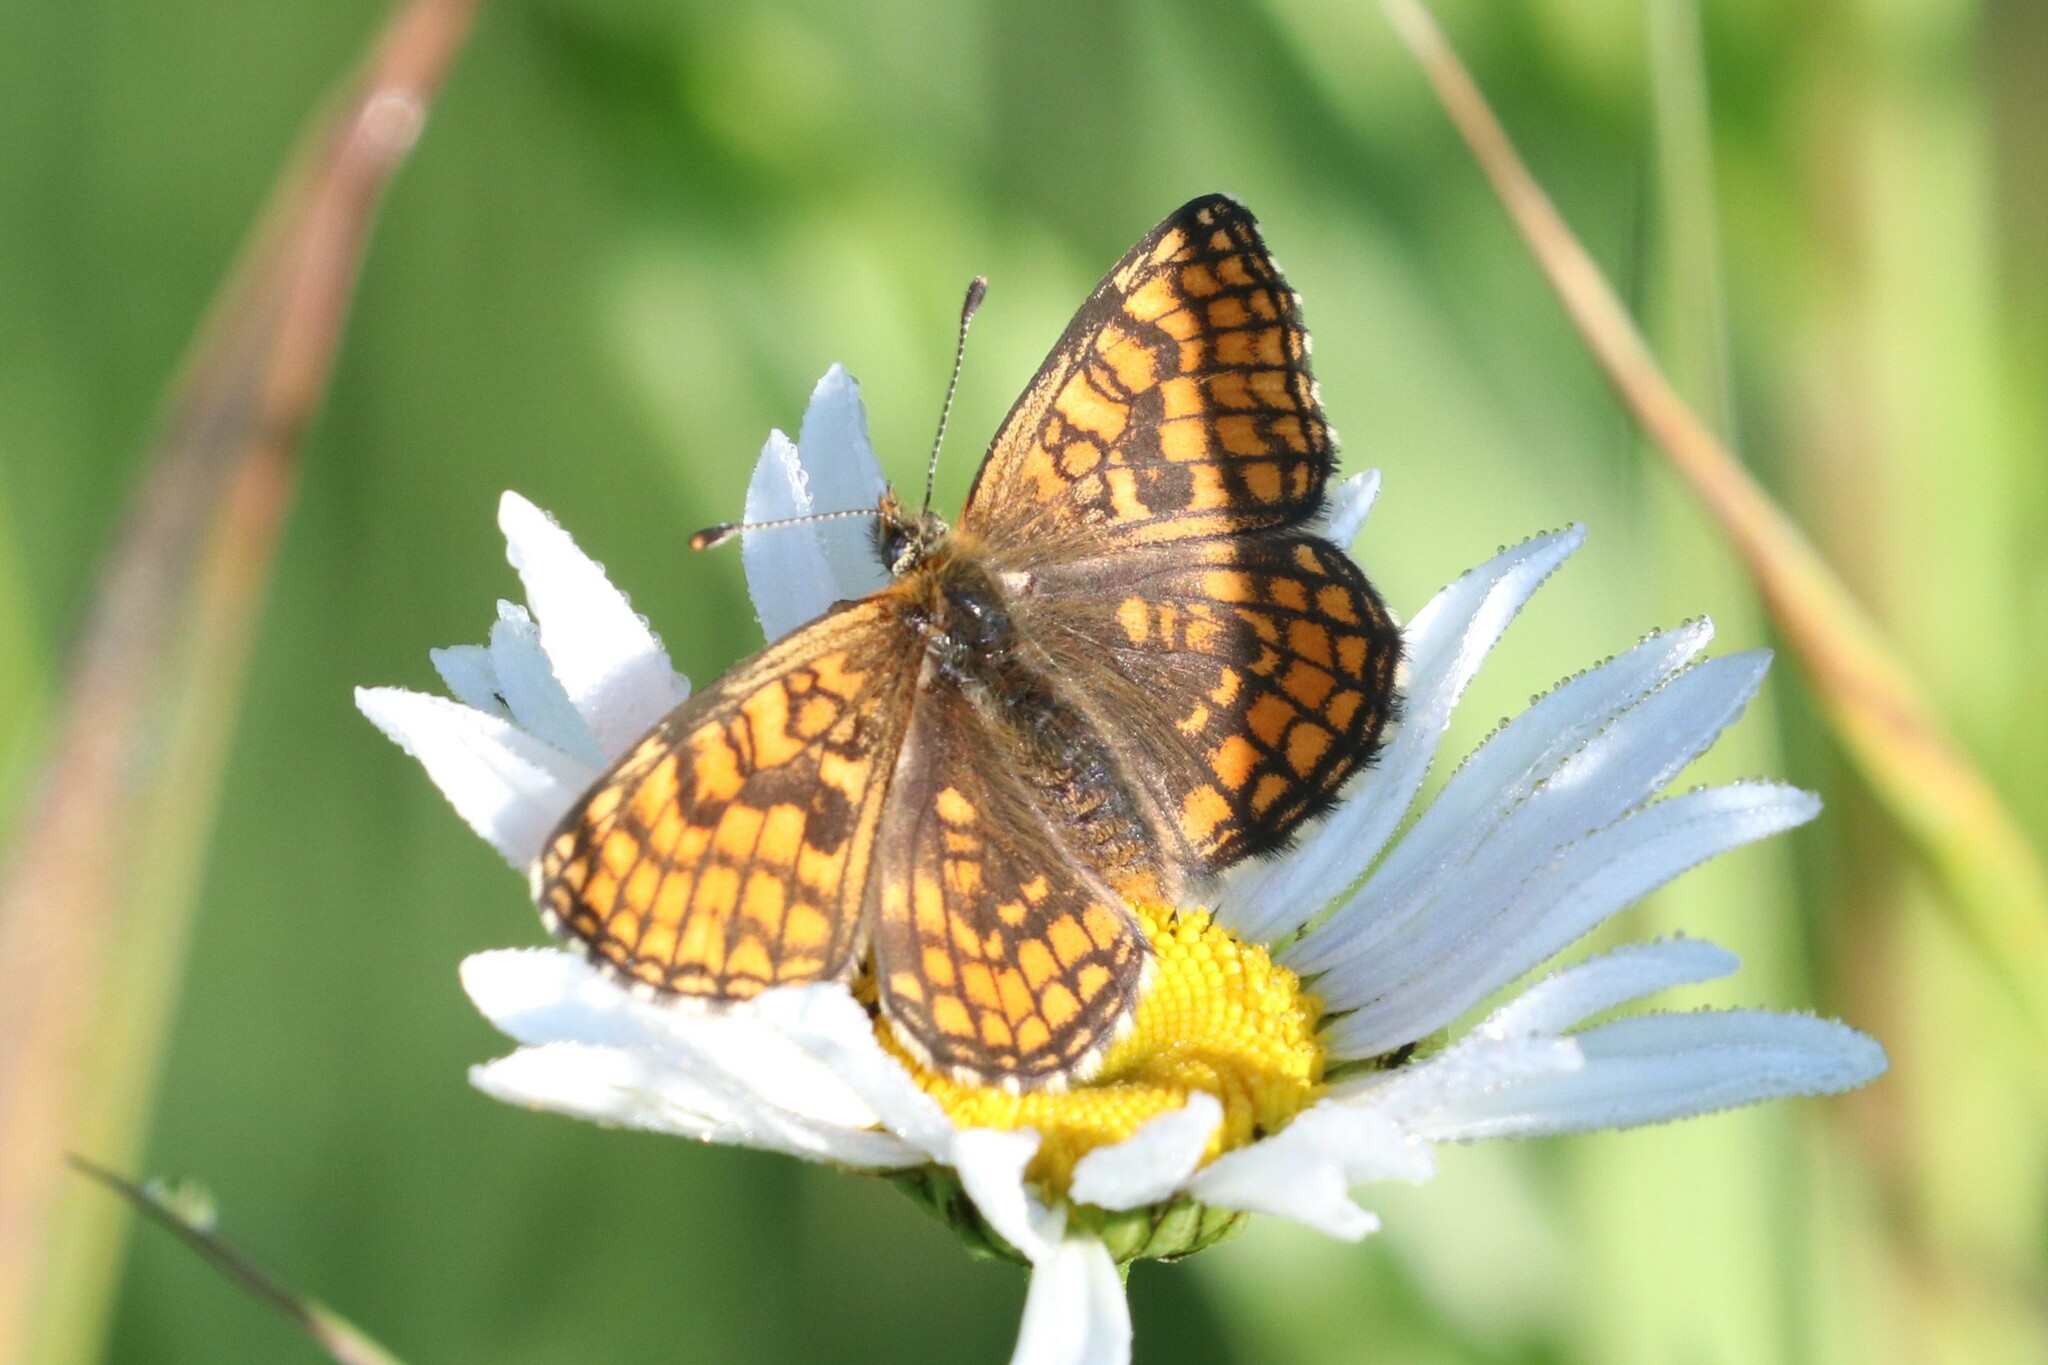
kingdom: Animalia
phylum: Arthropoda
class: Insecta
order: Lepidoptera
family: Nymphalidae
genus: Melitaea
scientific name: Melitaea athalia
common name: Heath fritillary
